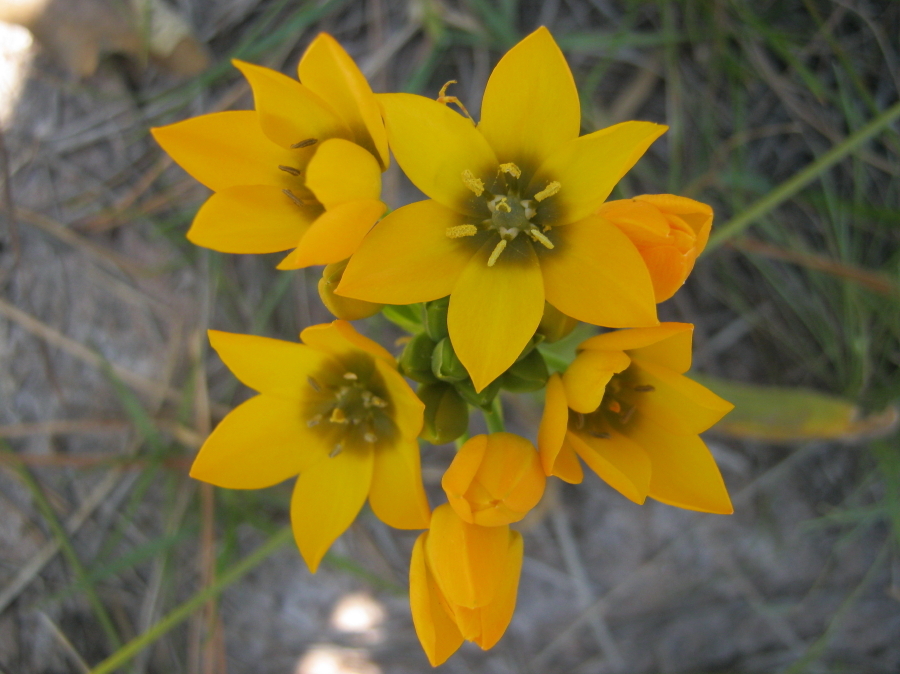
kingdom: Plantae
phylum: Tracheophyta
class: Liliopsida
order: Asparagales
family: Asparagaceae
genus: Ornithogalum
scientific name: Ornithogalum dubium
